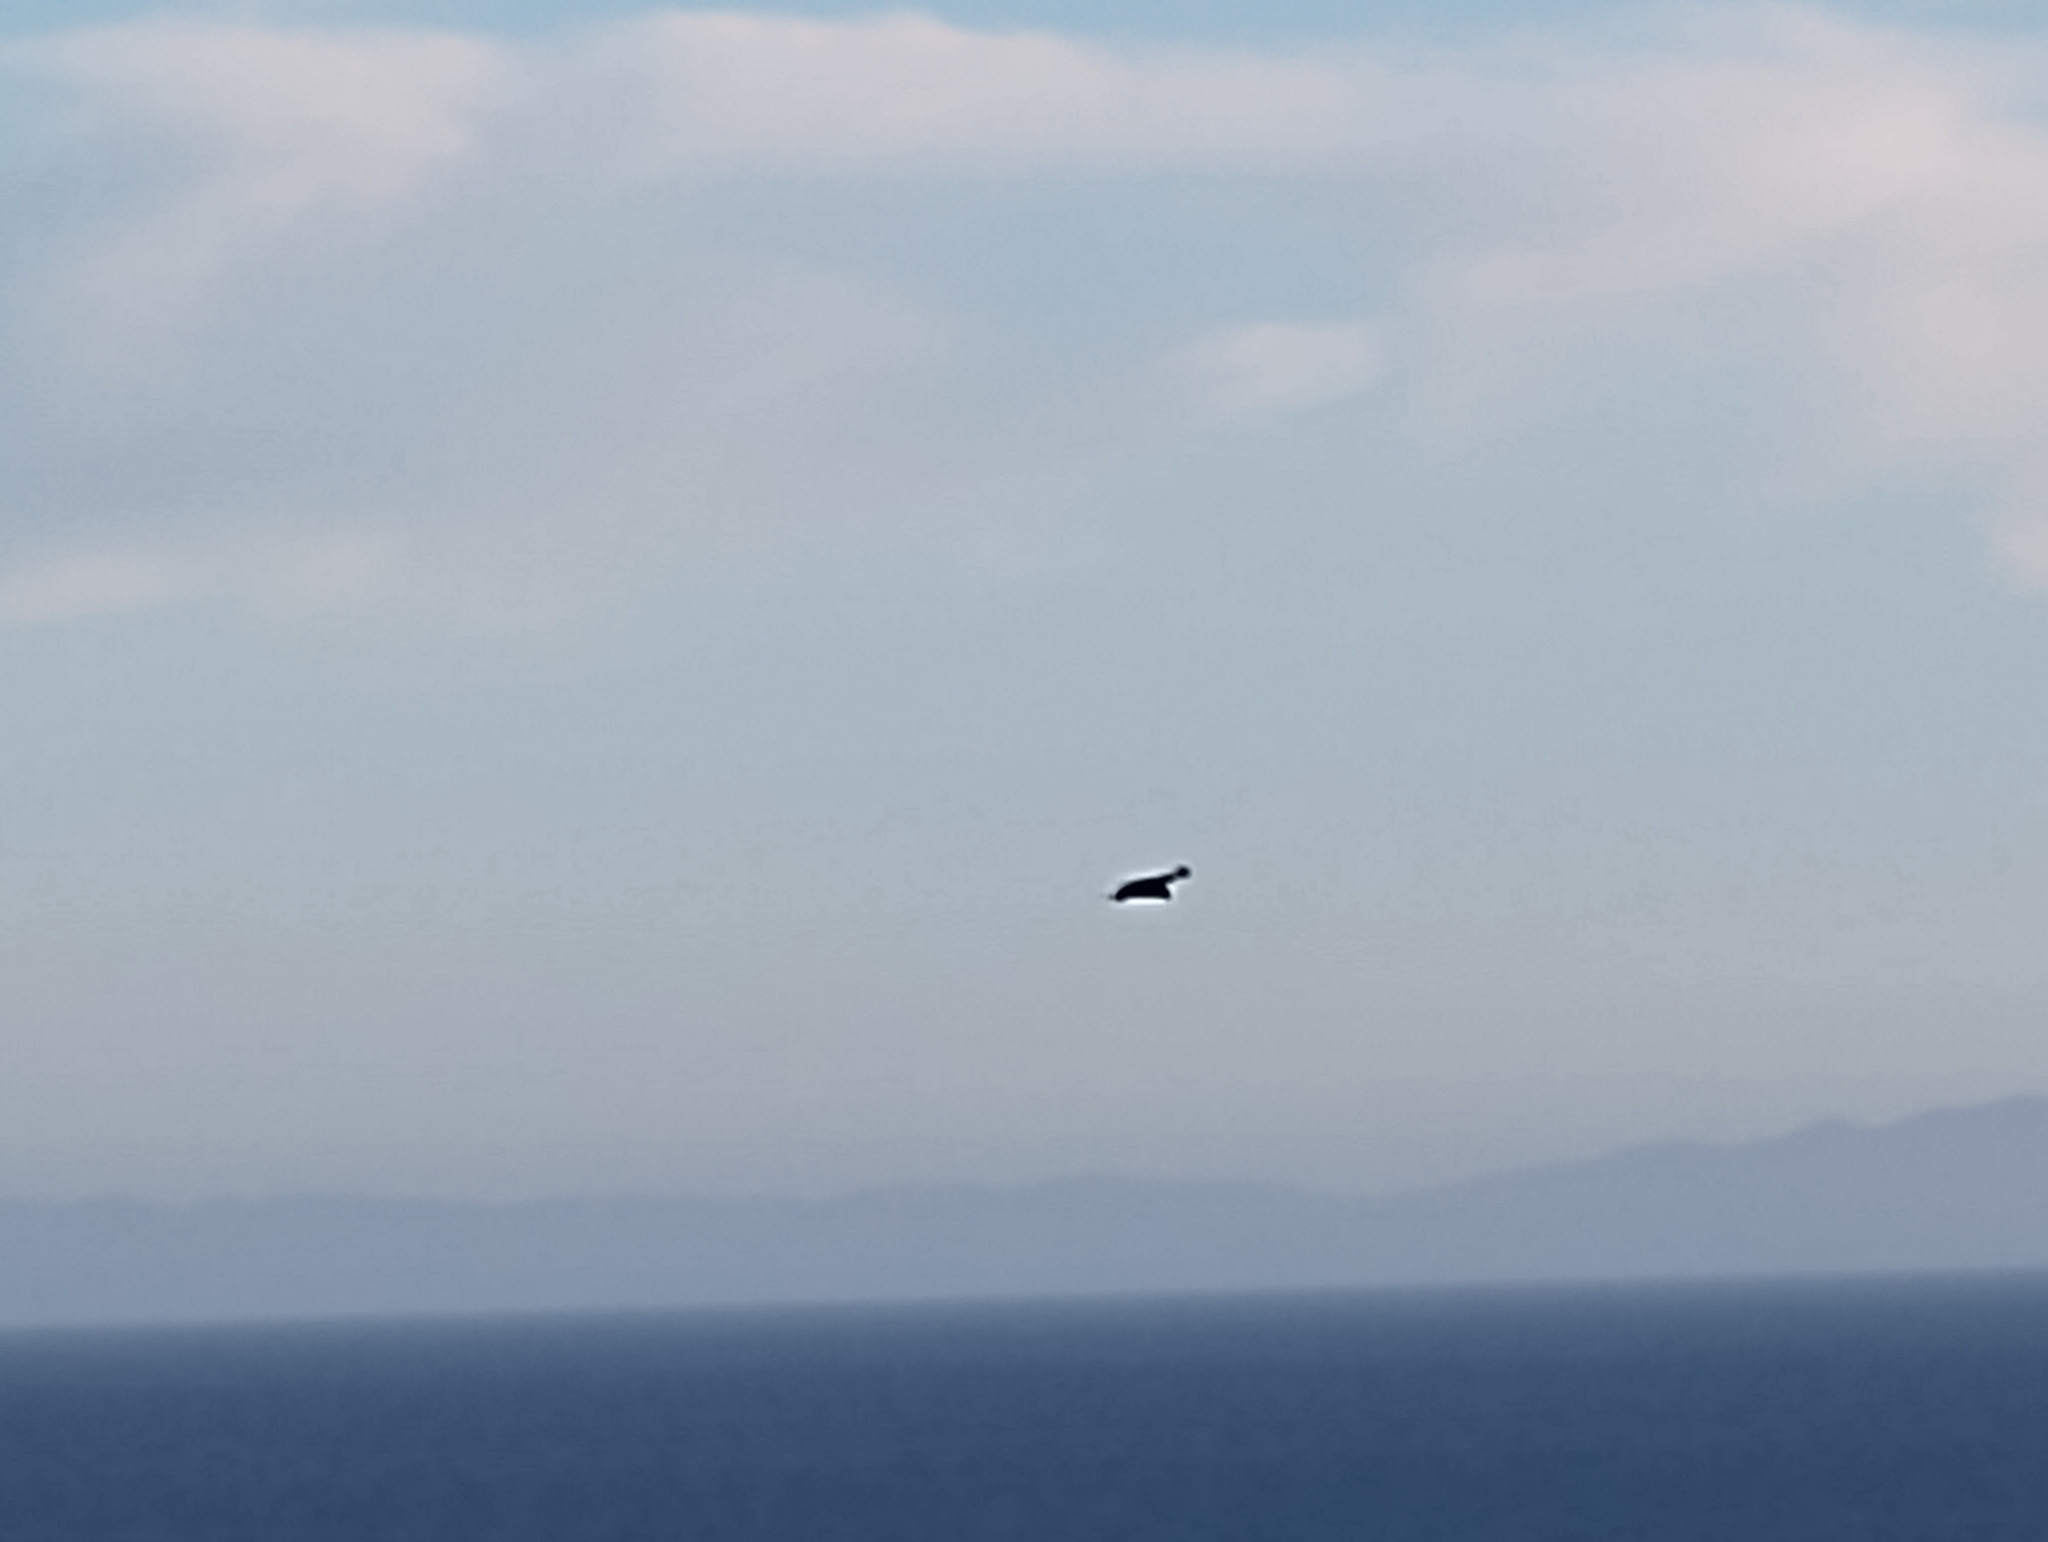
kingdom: Animalia
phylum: Chordata
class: Aves
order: Accipitriformes
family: Accipitridae
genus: Buteo
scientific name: Buteo jamaicensis
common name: Red-tailed hawk
